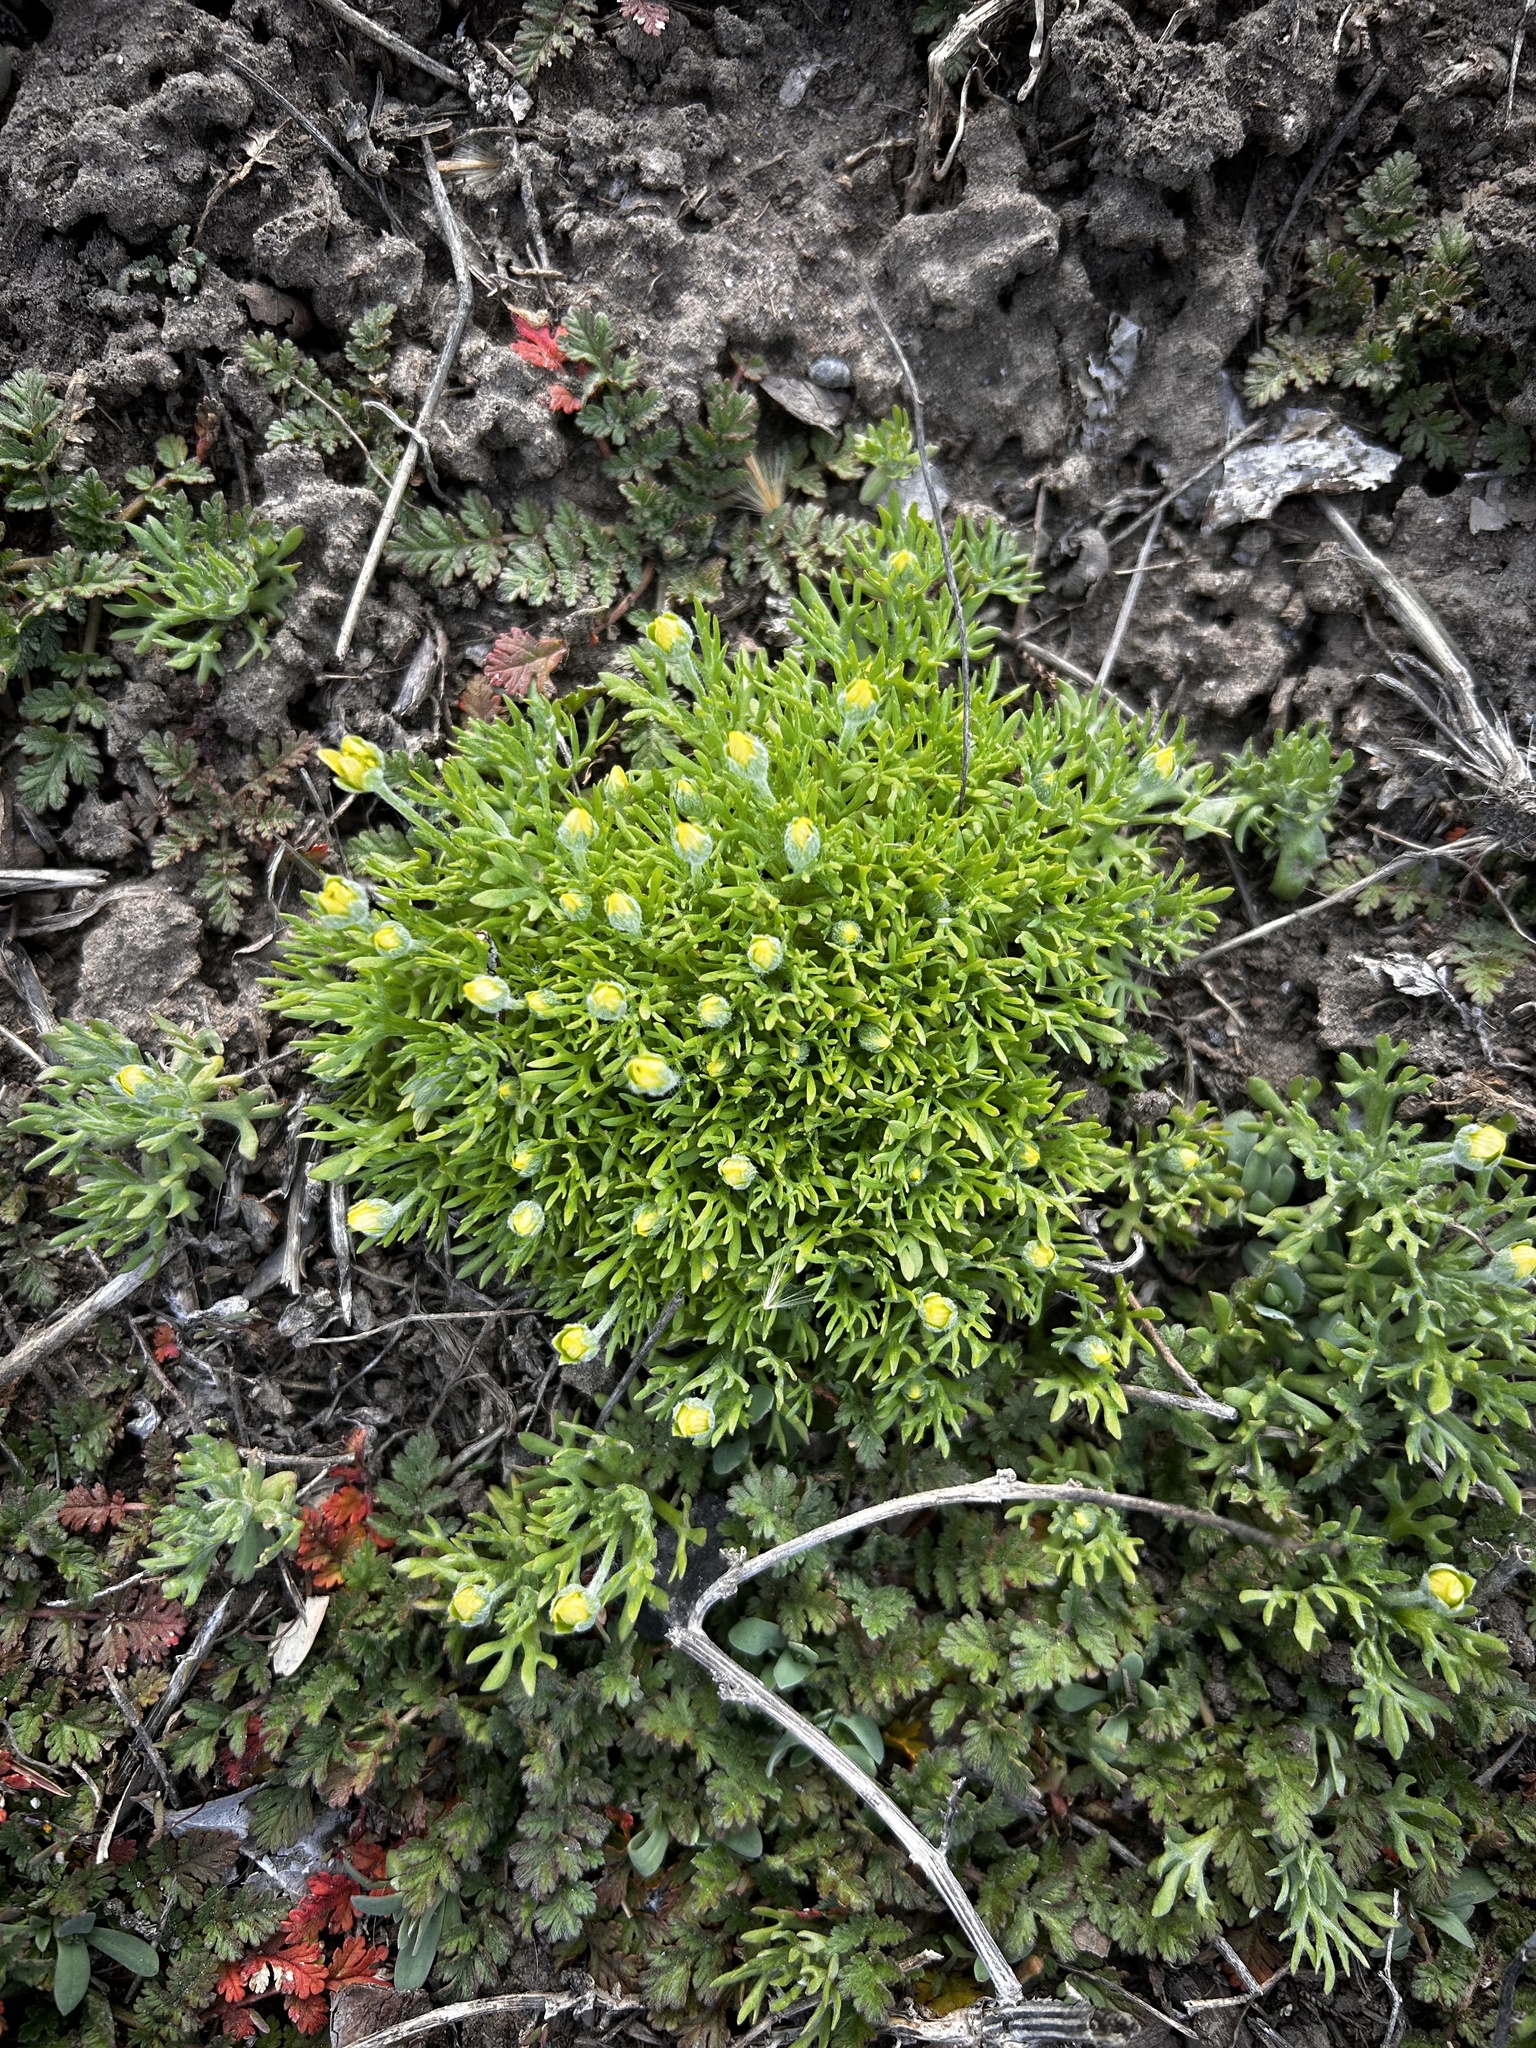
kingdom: Plantae
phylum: Tracheophyta
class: Magnoliopsida
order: Ranunculales
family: Ranunculaceae
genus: Ceratocephala
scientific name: Ceratocephala orthoceras
